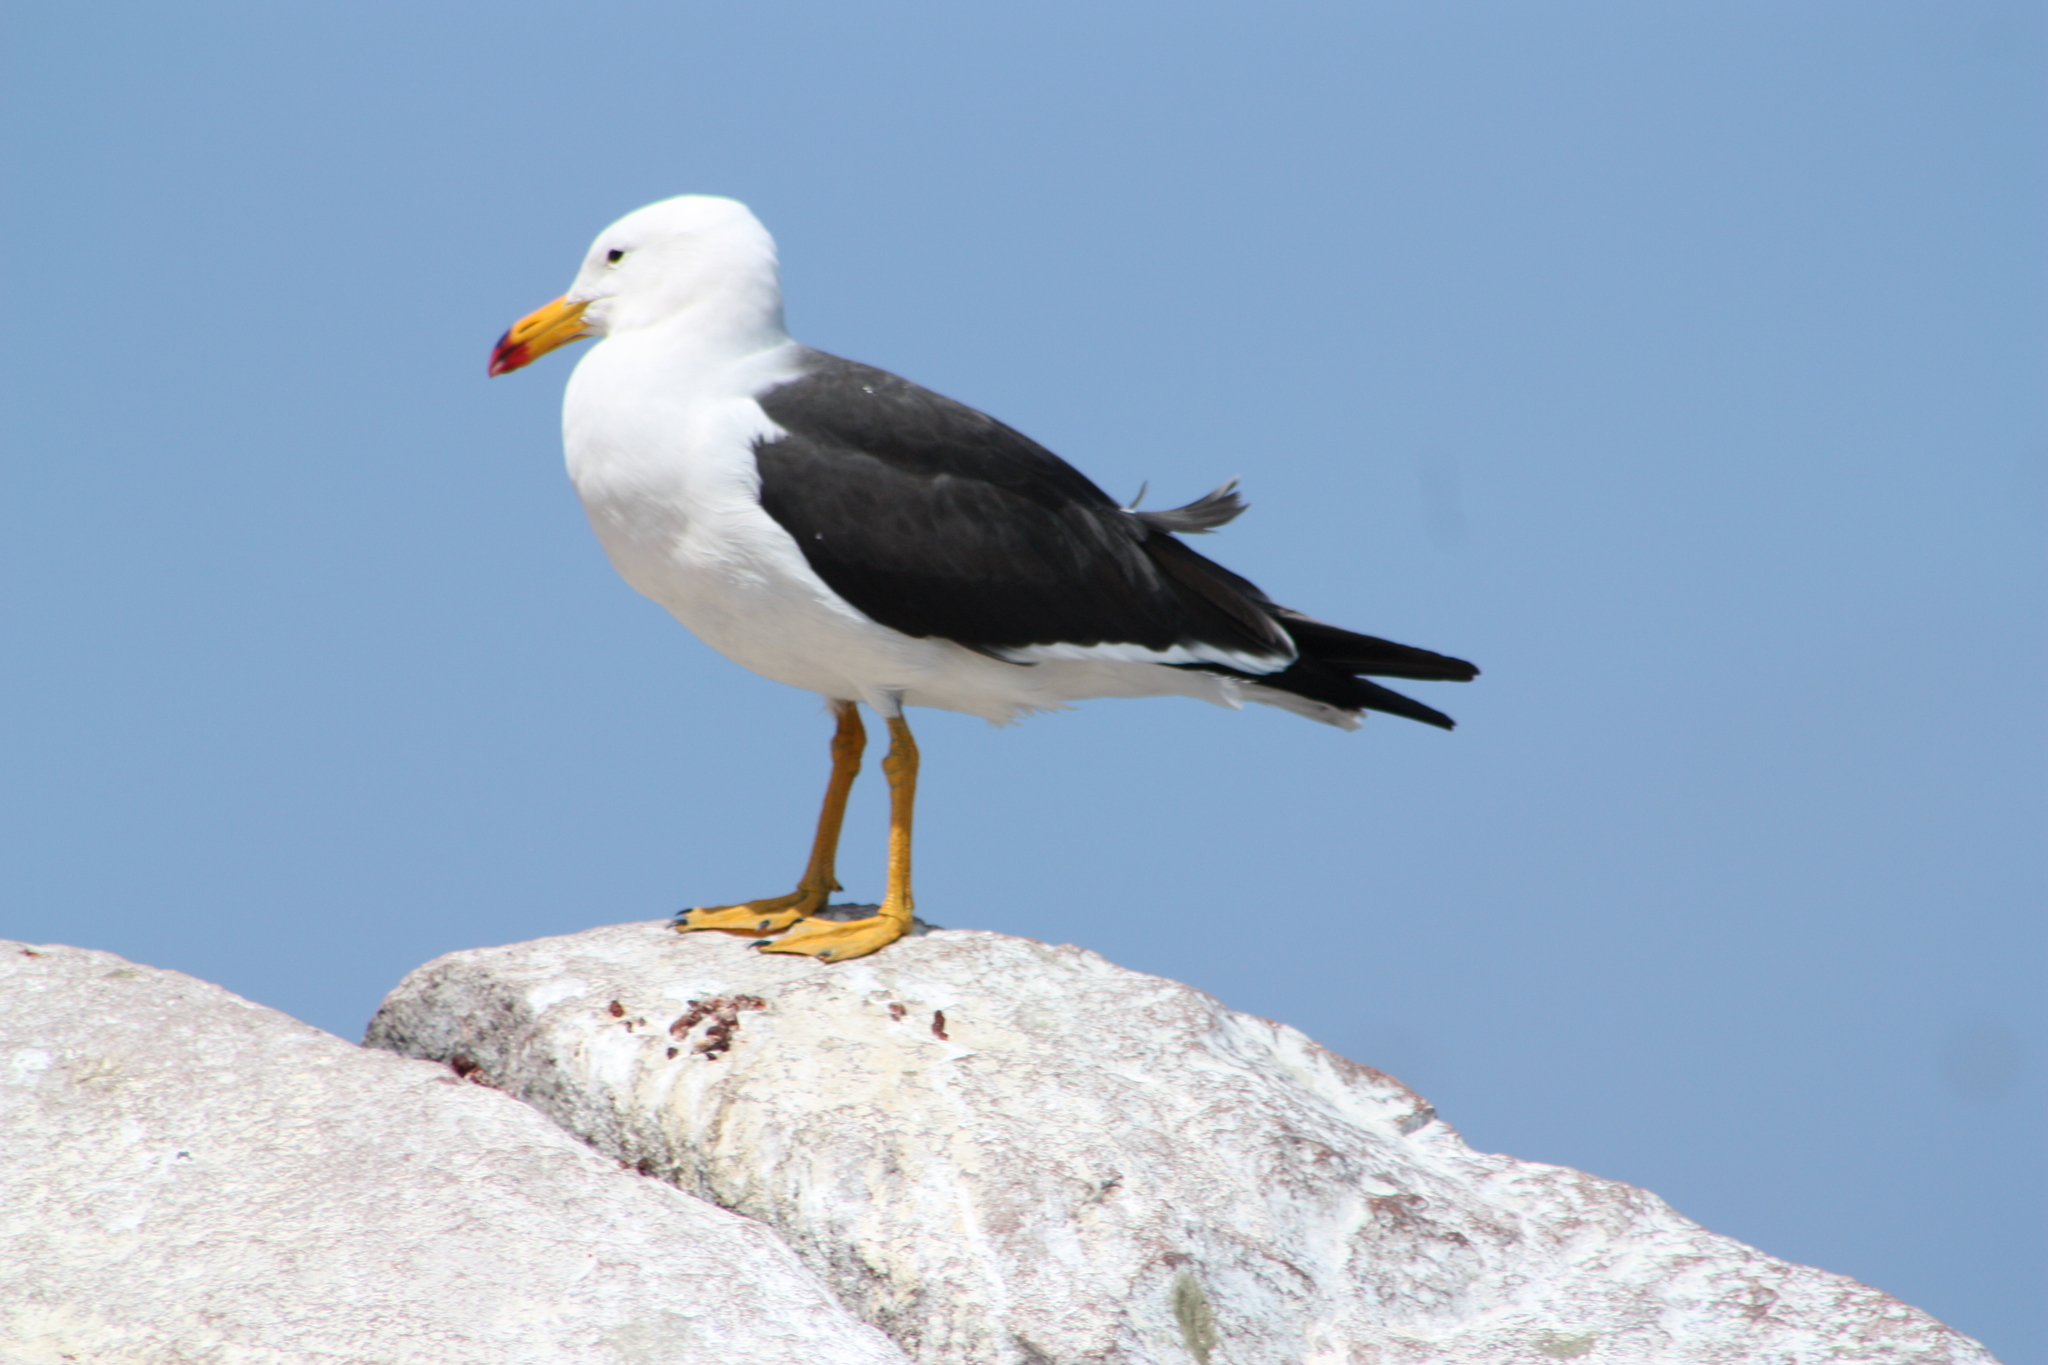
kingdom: Animalia
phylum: Chordata
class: Aves
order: Charadriiformes
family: Laridae
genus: Larus
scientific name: Larus belcheri
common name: Belcher's gull
